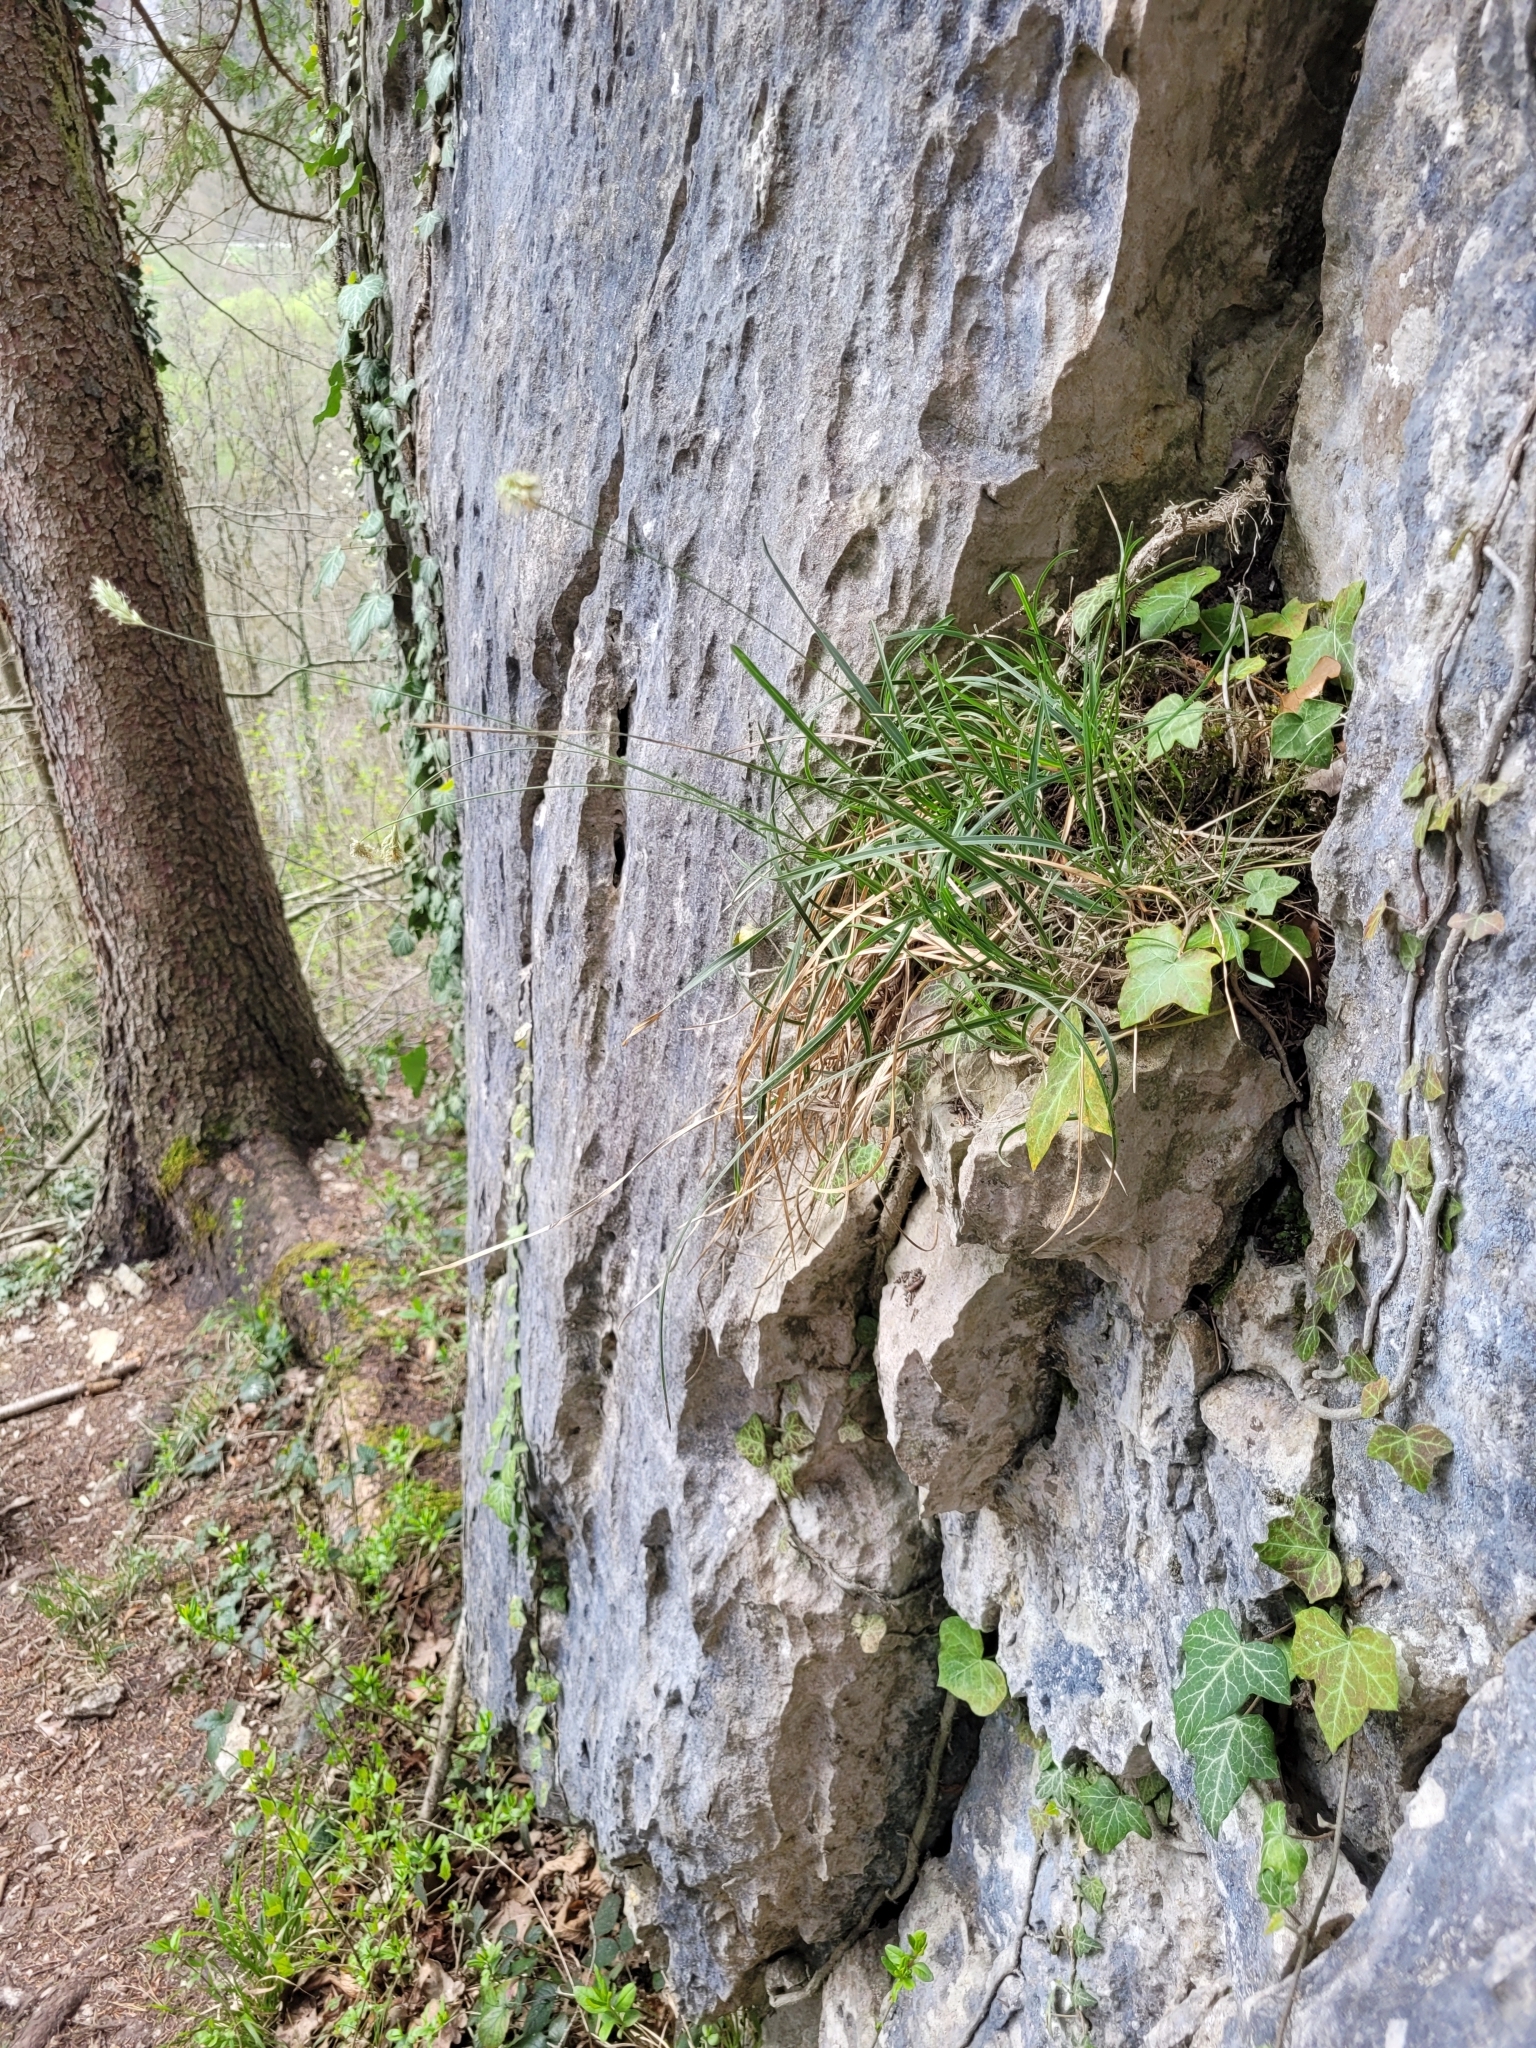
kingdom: Plantae
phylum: Tracheophyta
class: Liliopsida
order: Poales
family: Poaceae
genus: Sesleria
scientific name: Sesleria caerulea
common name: Blue moor-grass
